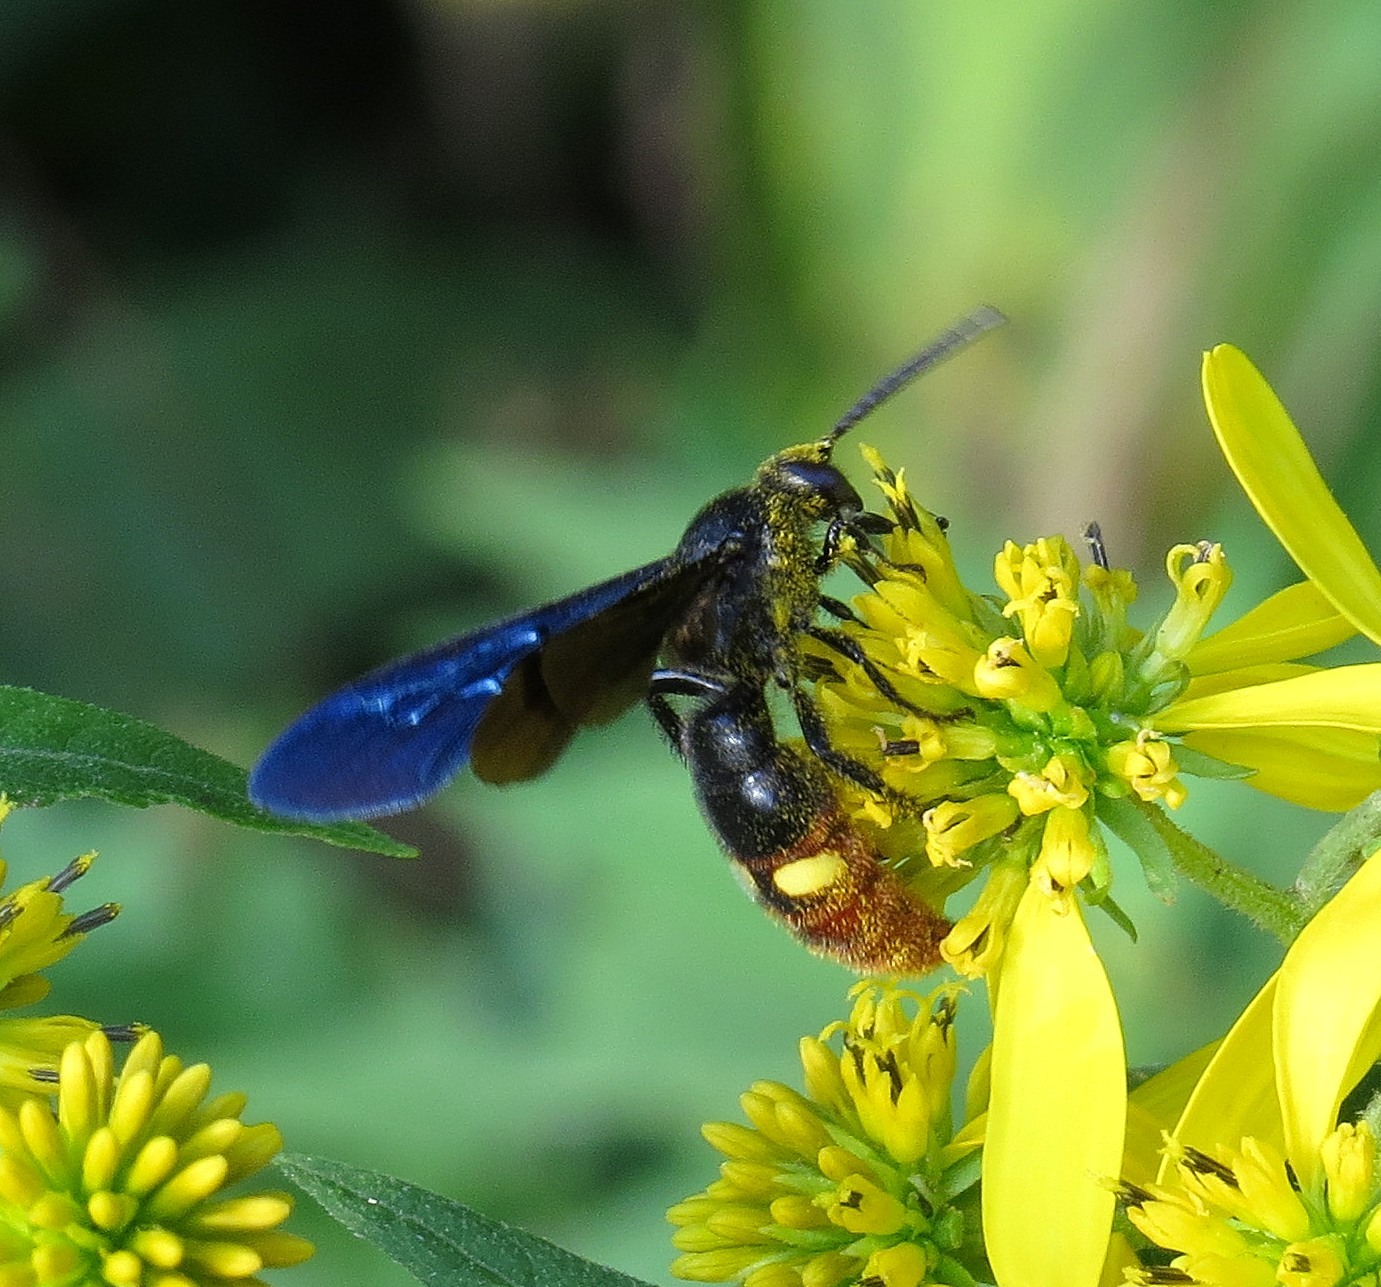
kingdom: Animalia
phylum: Arthropoda
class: Insecta
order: Hymenoptera
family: Scoliidae
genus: Scolia
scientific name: Scolia dubia
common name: Blue-winged scoliid wasp
